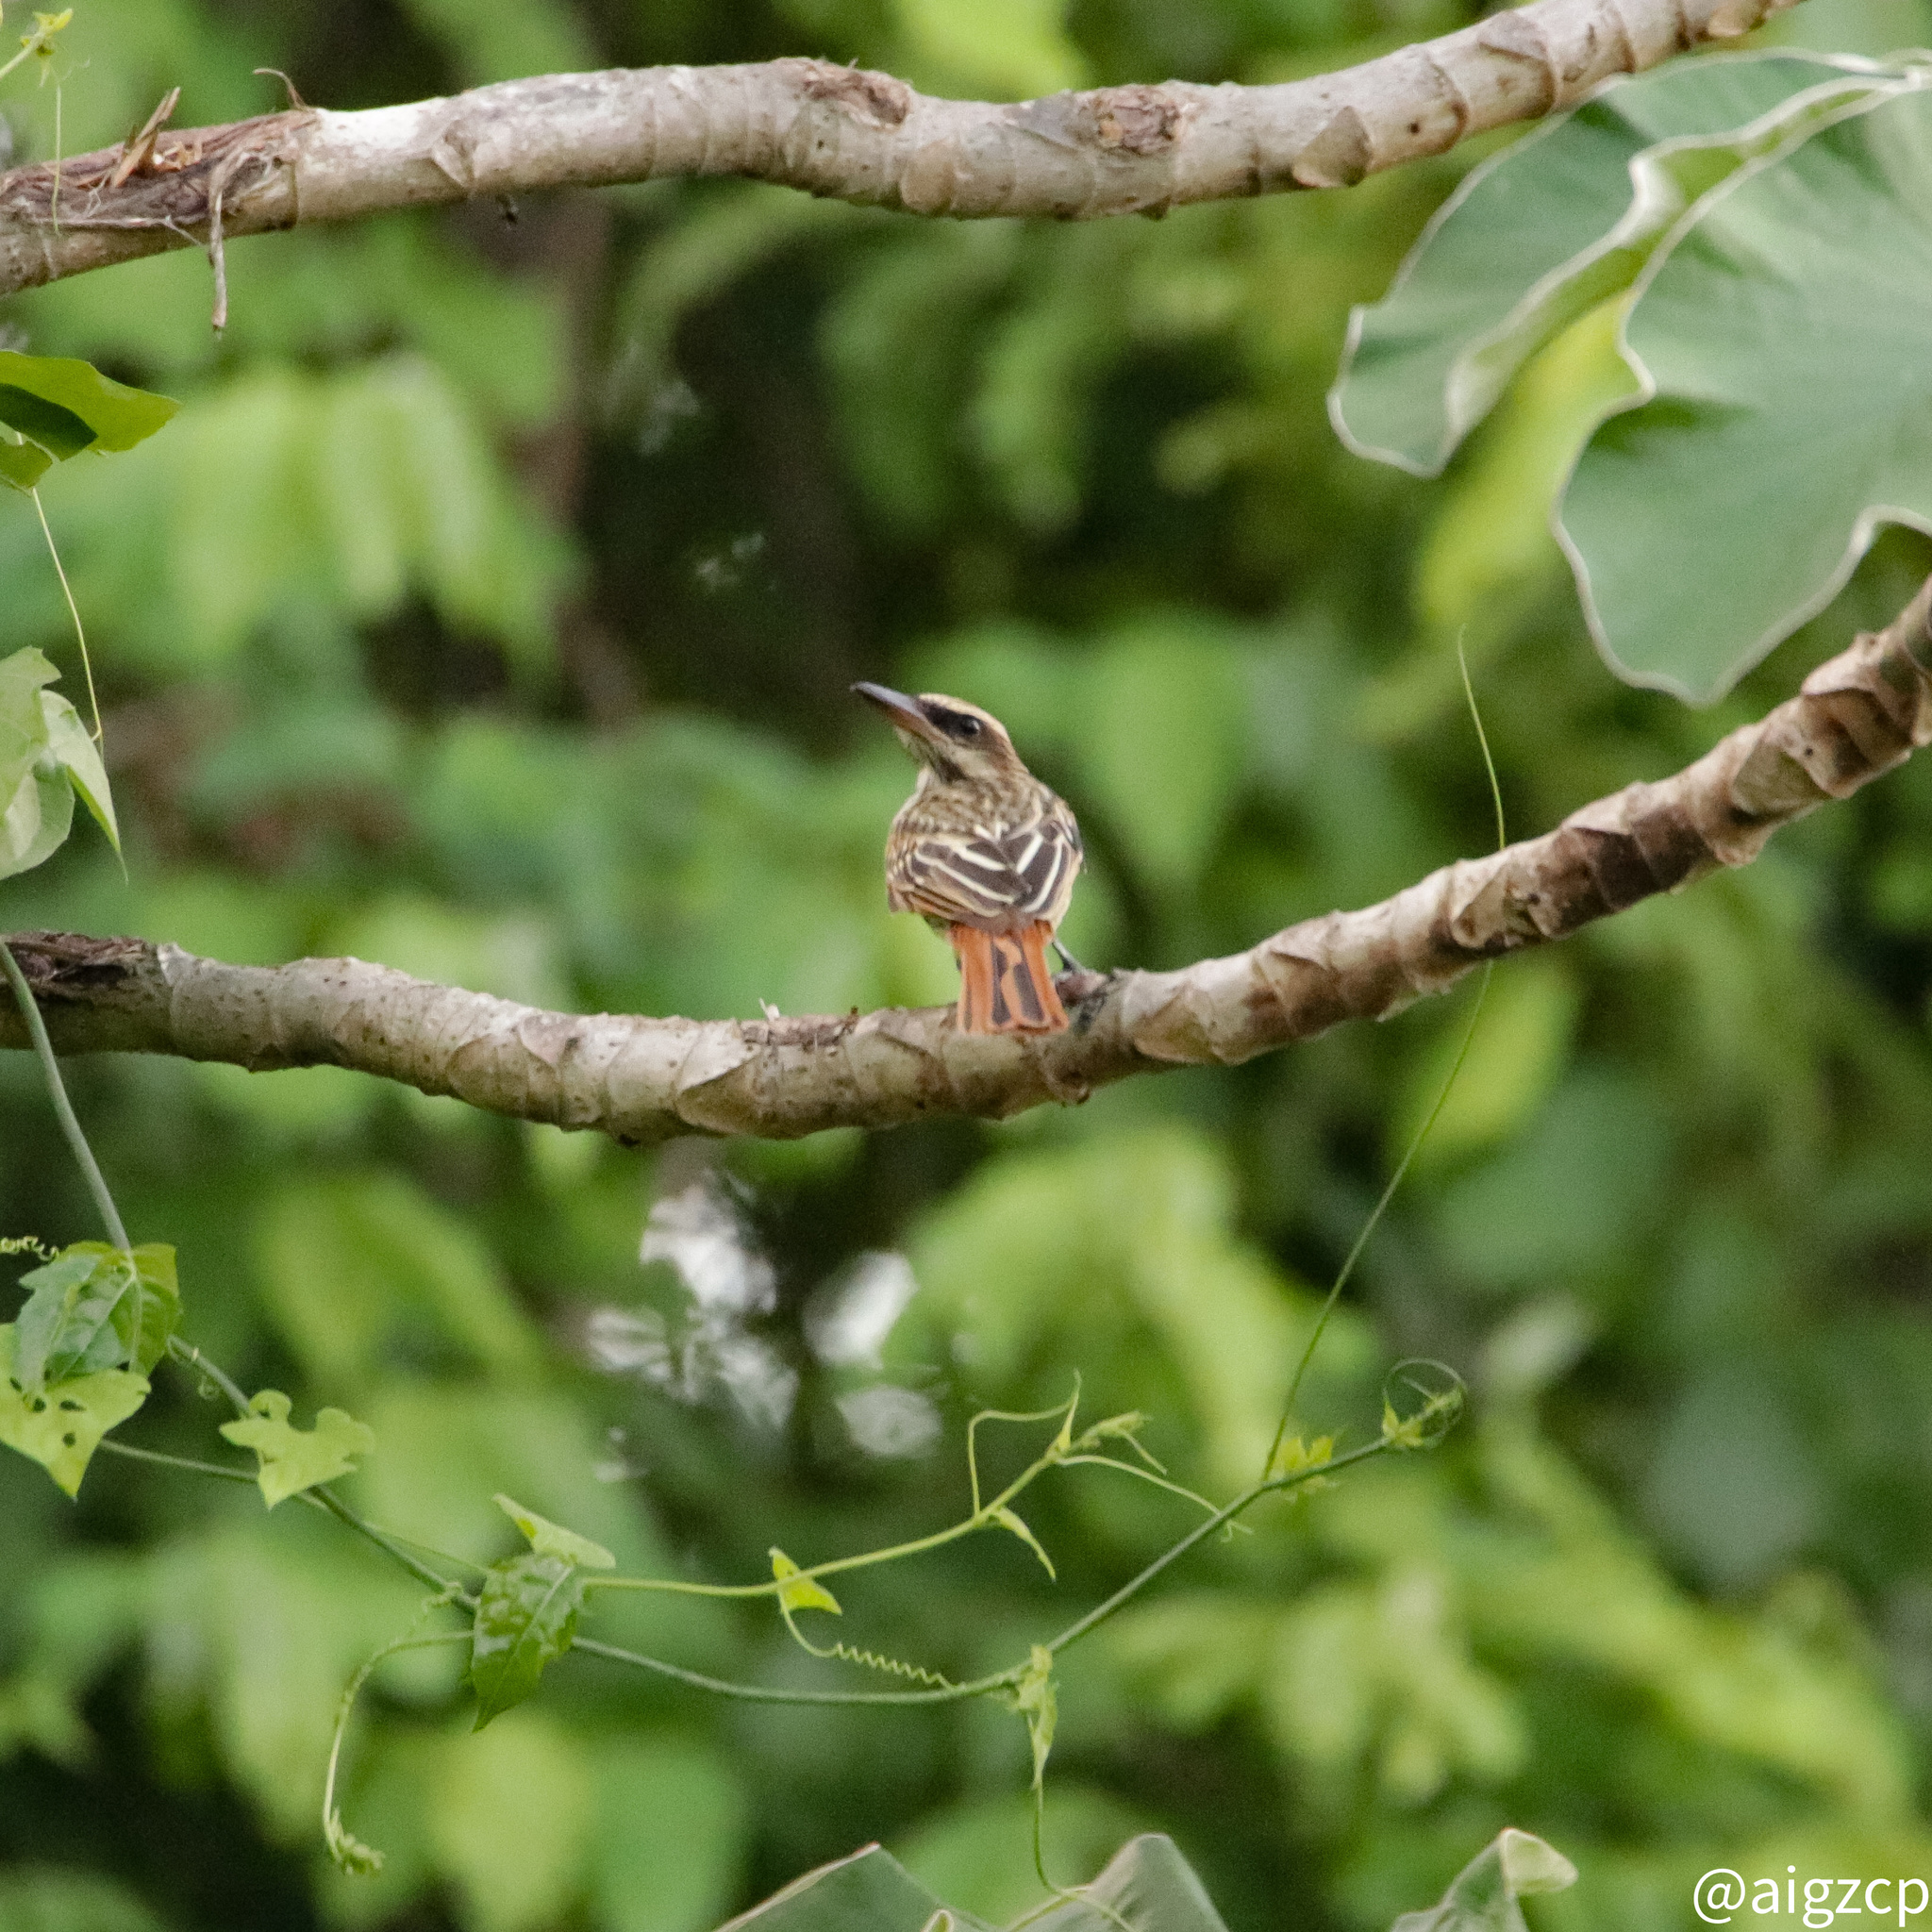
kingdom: Animalia
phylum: Chordata
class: Aves
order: Passeriformes
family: Tyrannidae
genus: Myiodynastes
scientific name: Myiodynastes maculatus
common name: Streaked flycatcher
